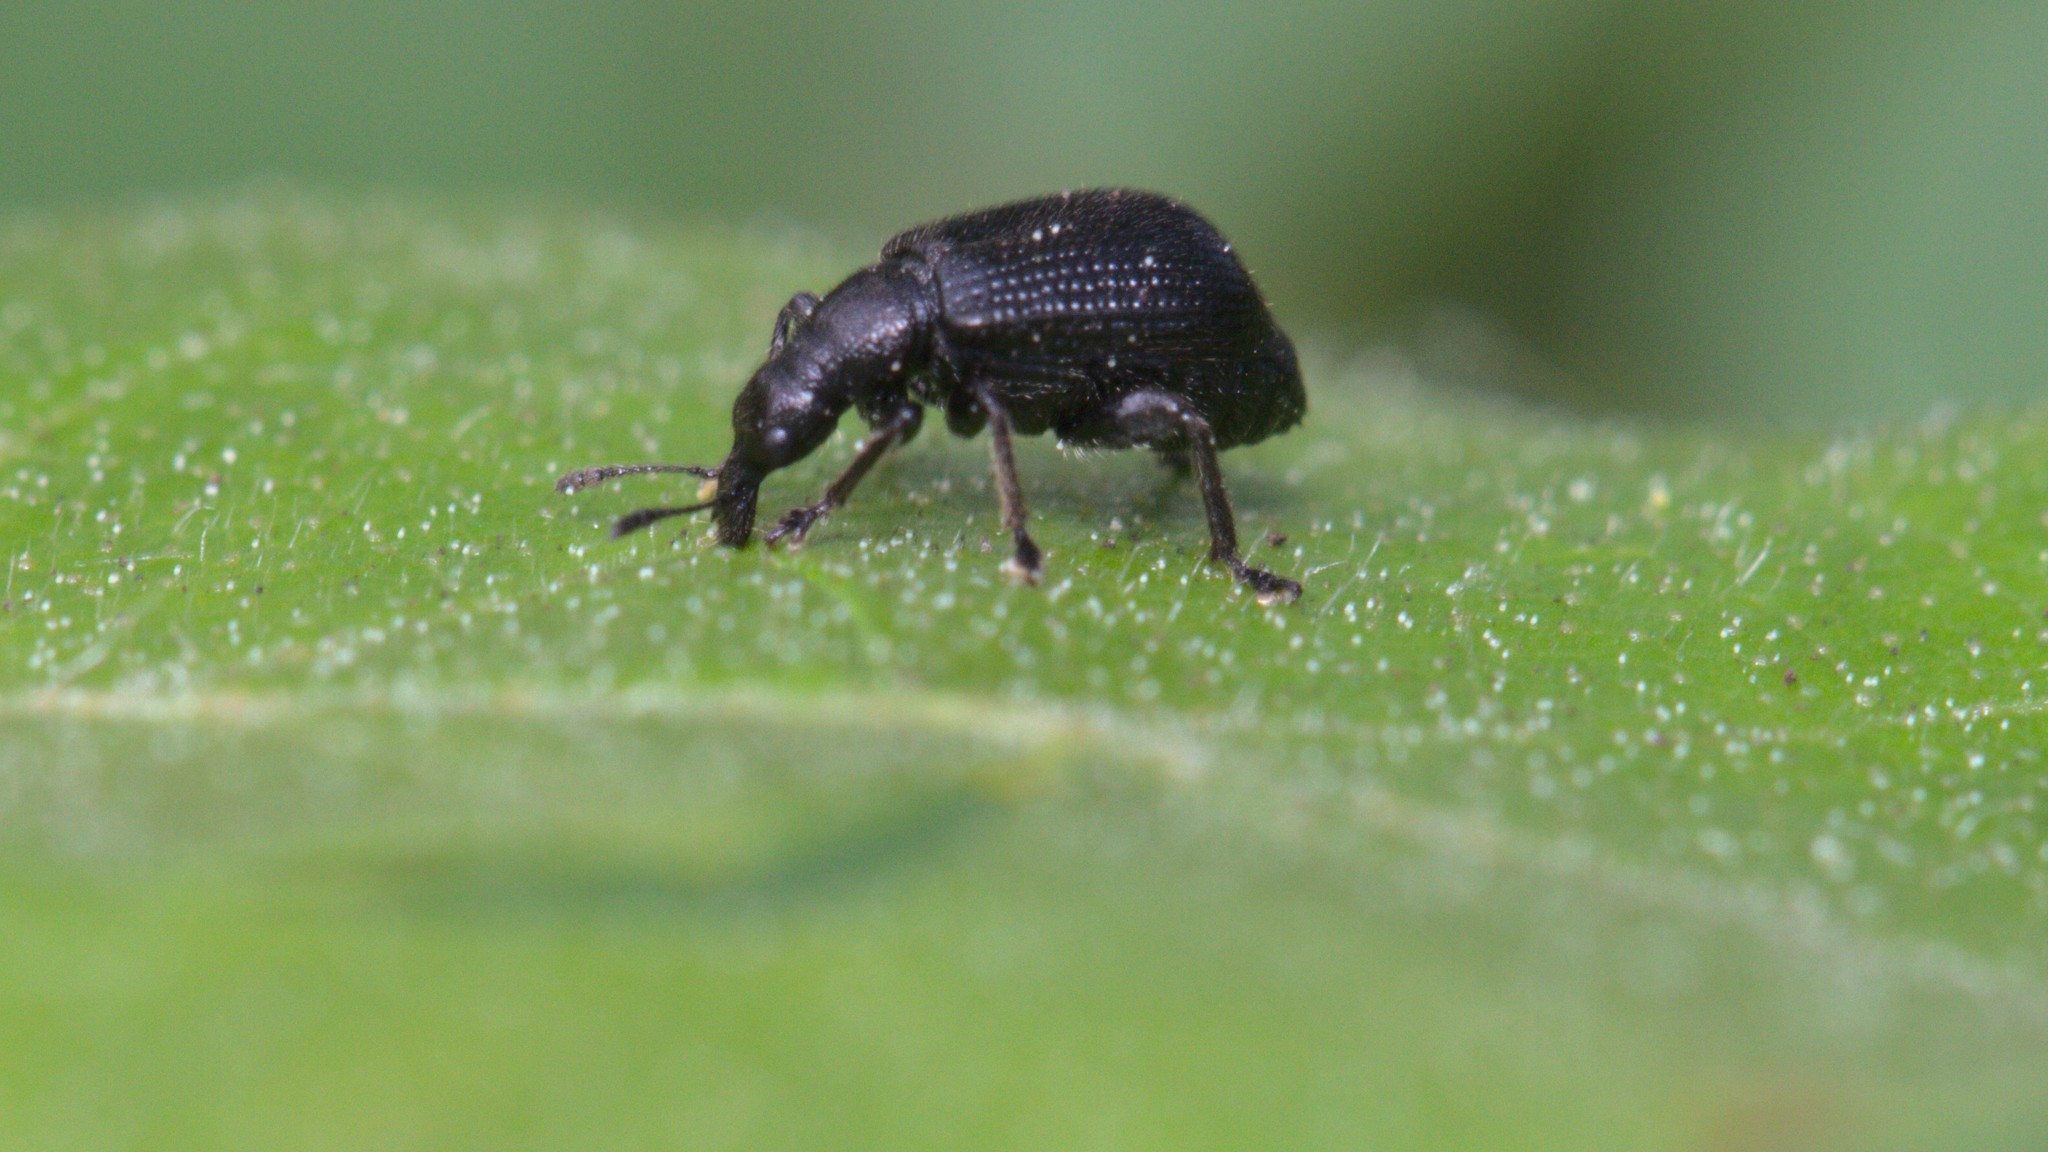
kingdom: Animalia
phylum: Arthropoda
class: Insecta
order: Coleoptera
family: Attelabidae
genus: Deporaus
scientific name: Deporaus betulae
